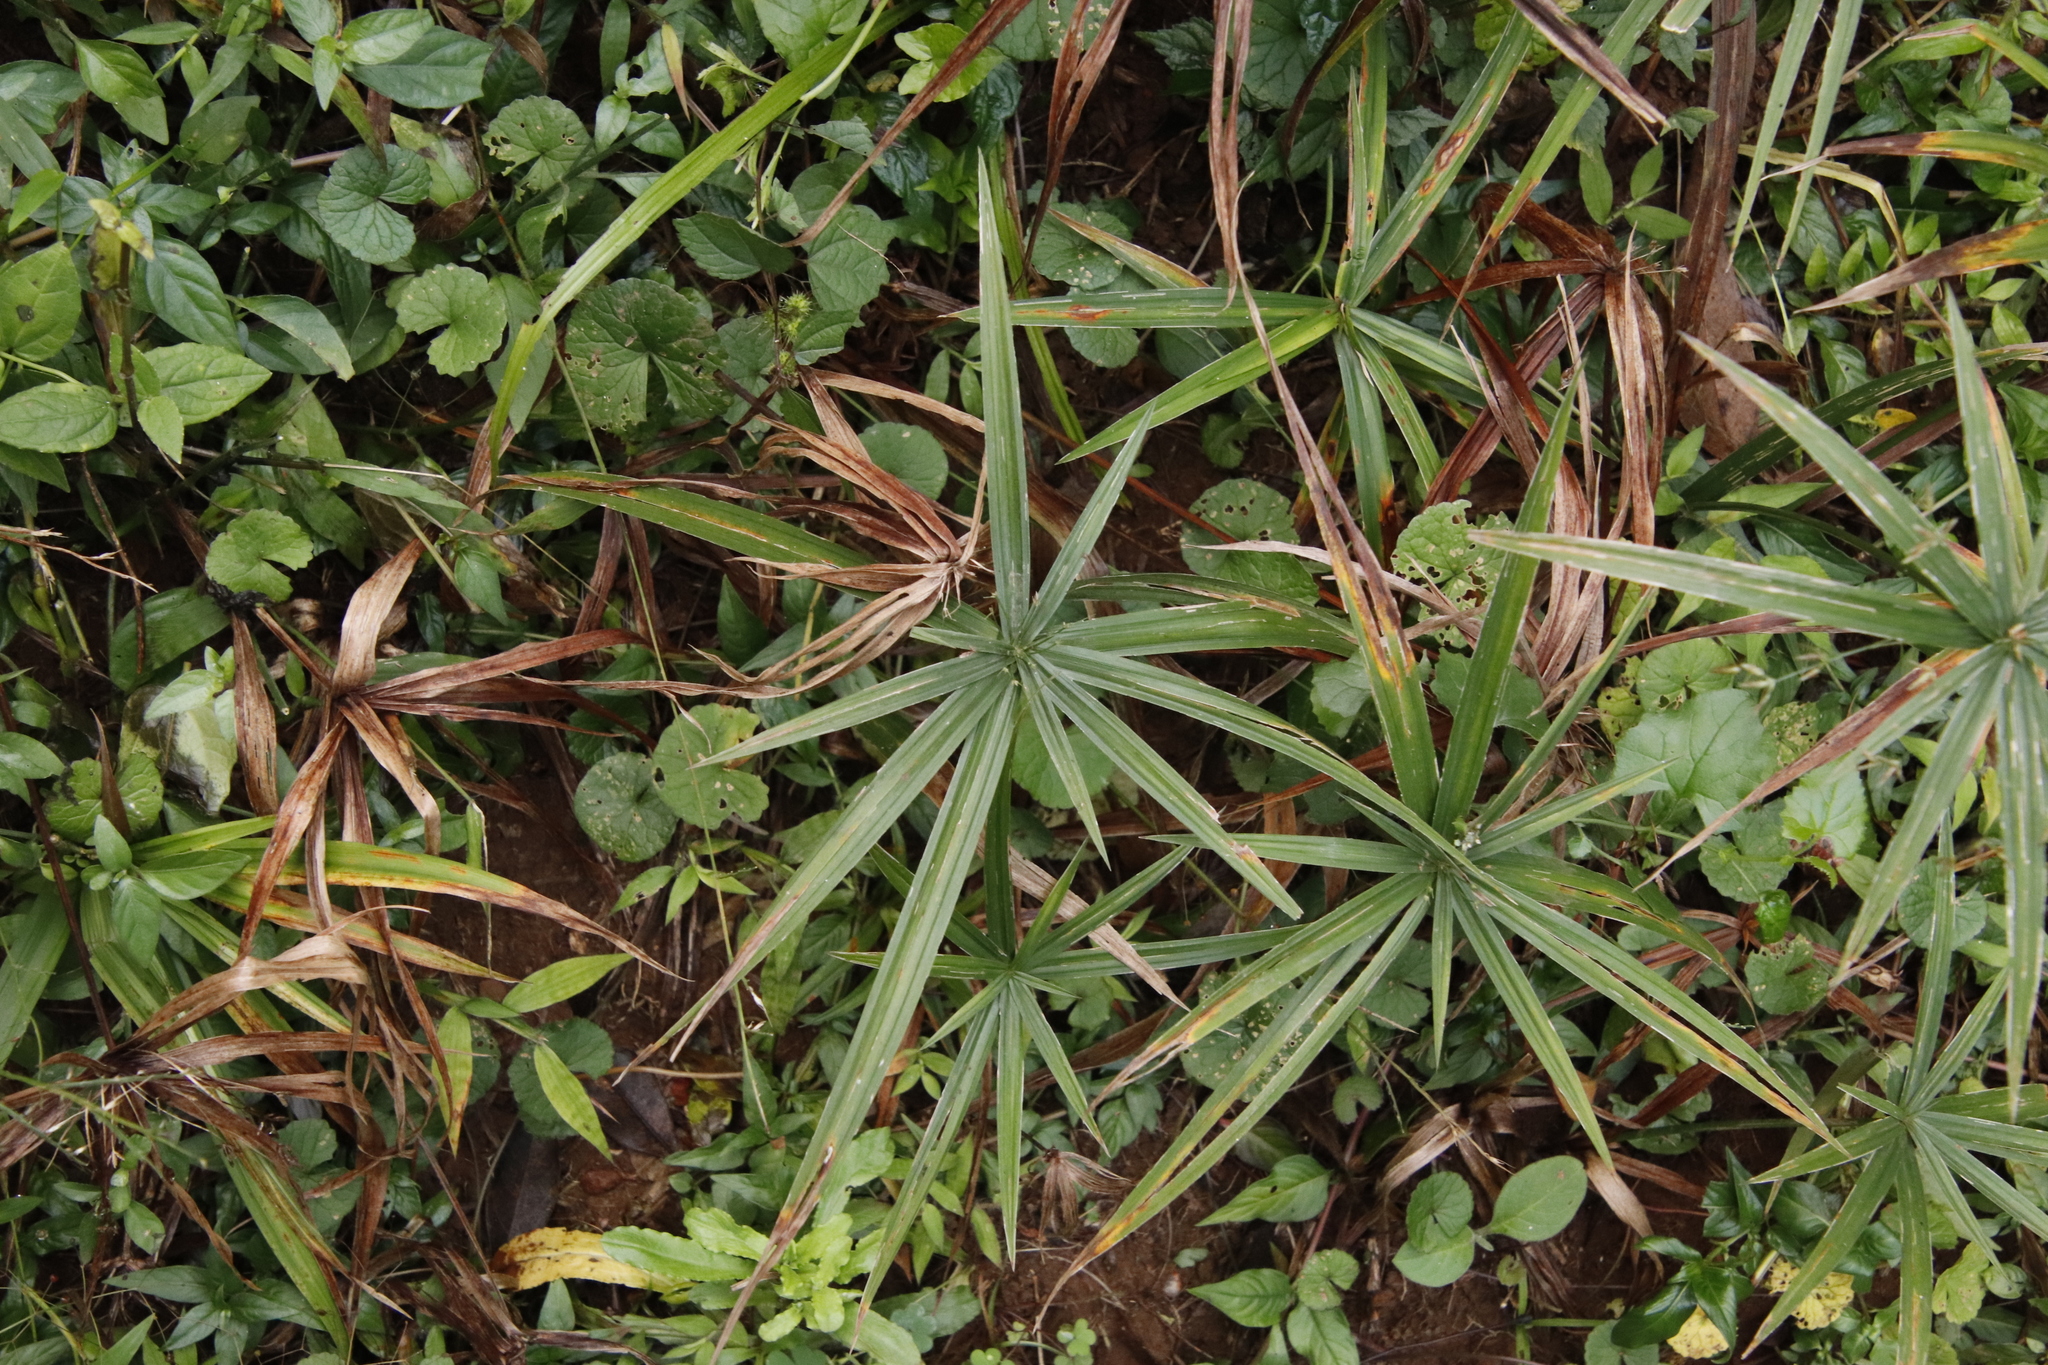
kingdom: Plantae
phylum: Tracheophyta
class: Liliopsida
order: Poales
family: Cyperaceae
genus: Cyperus
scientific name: Cyperus albostriatus
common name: Dwarf umbrella-grass
